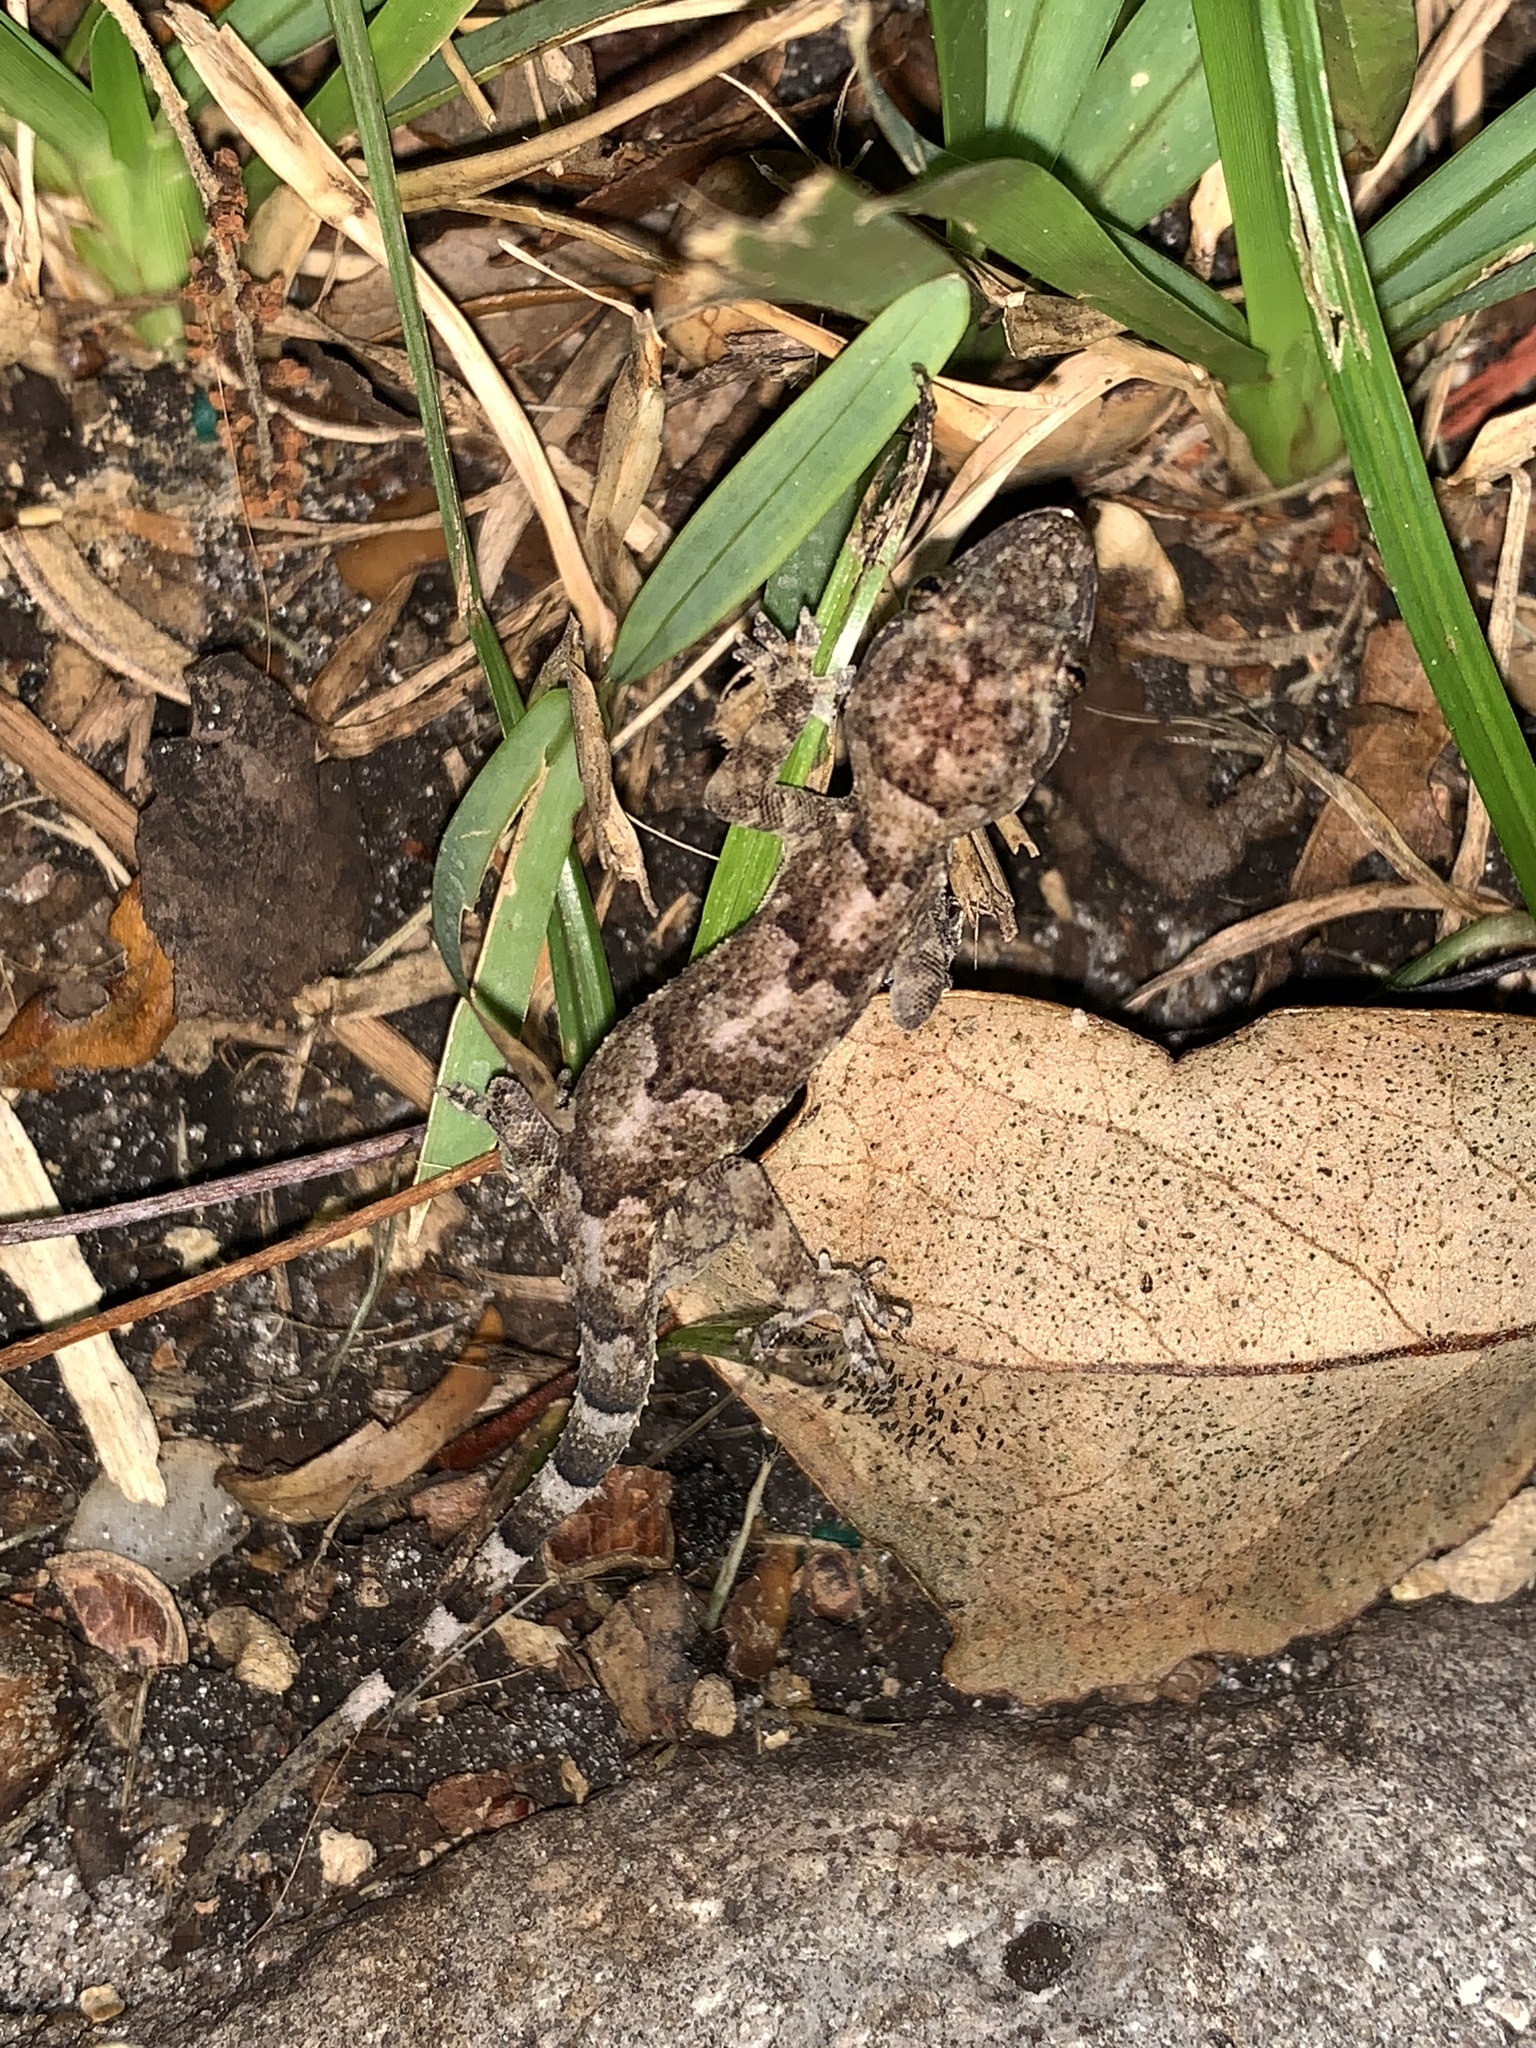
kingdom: Animalia
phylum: Chordata
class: Squamata
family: Gekkonidae
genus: Hemidactylus
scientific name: Hemidactylus mabouia
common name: House gecko
